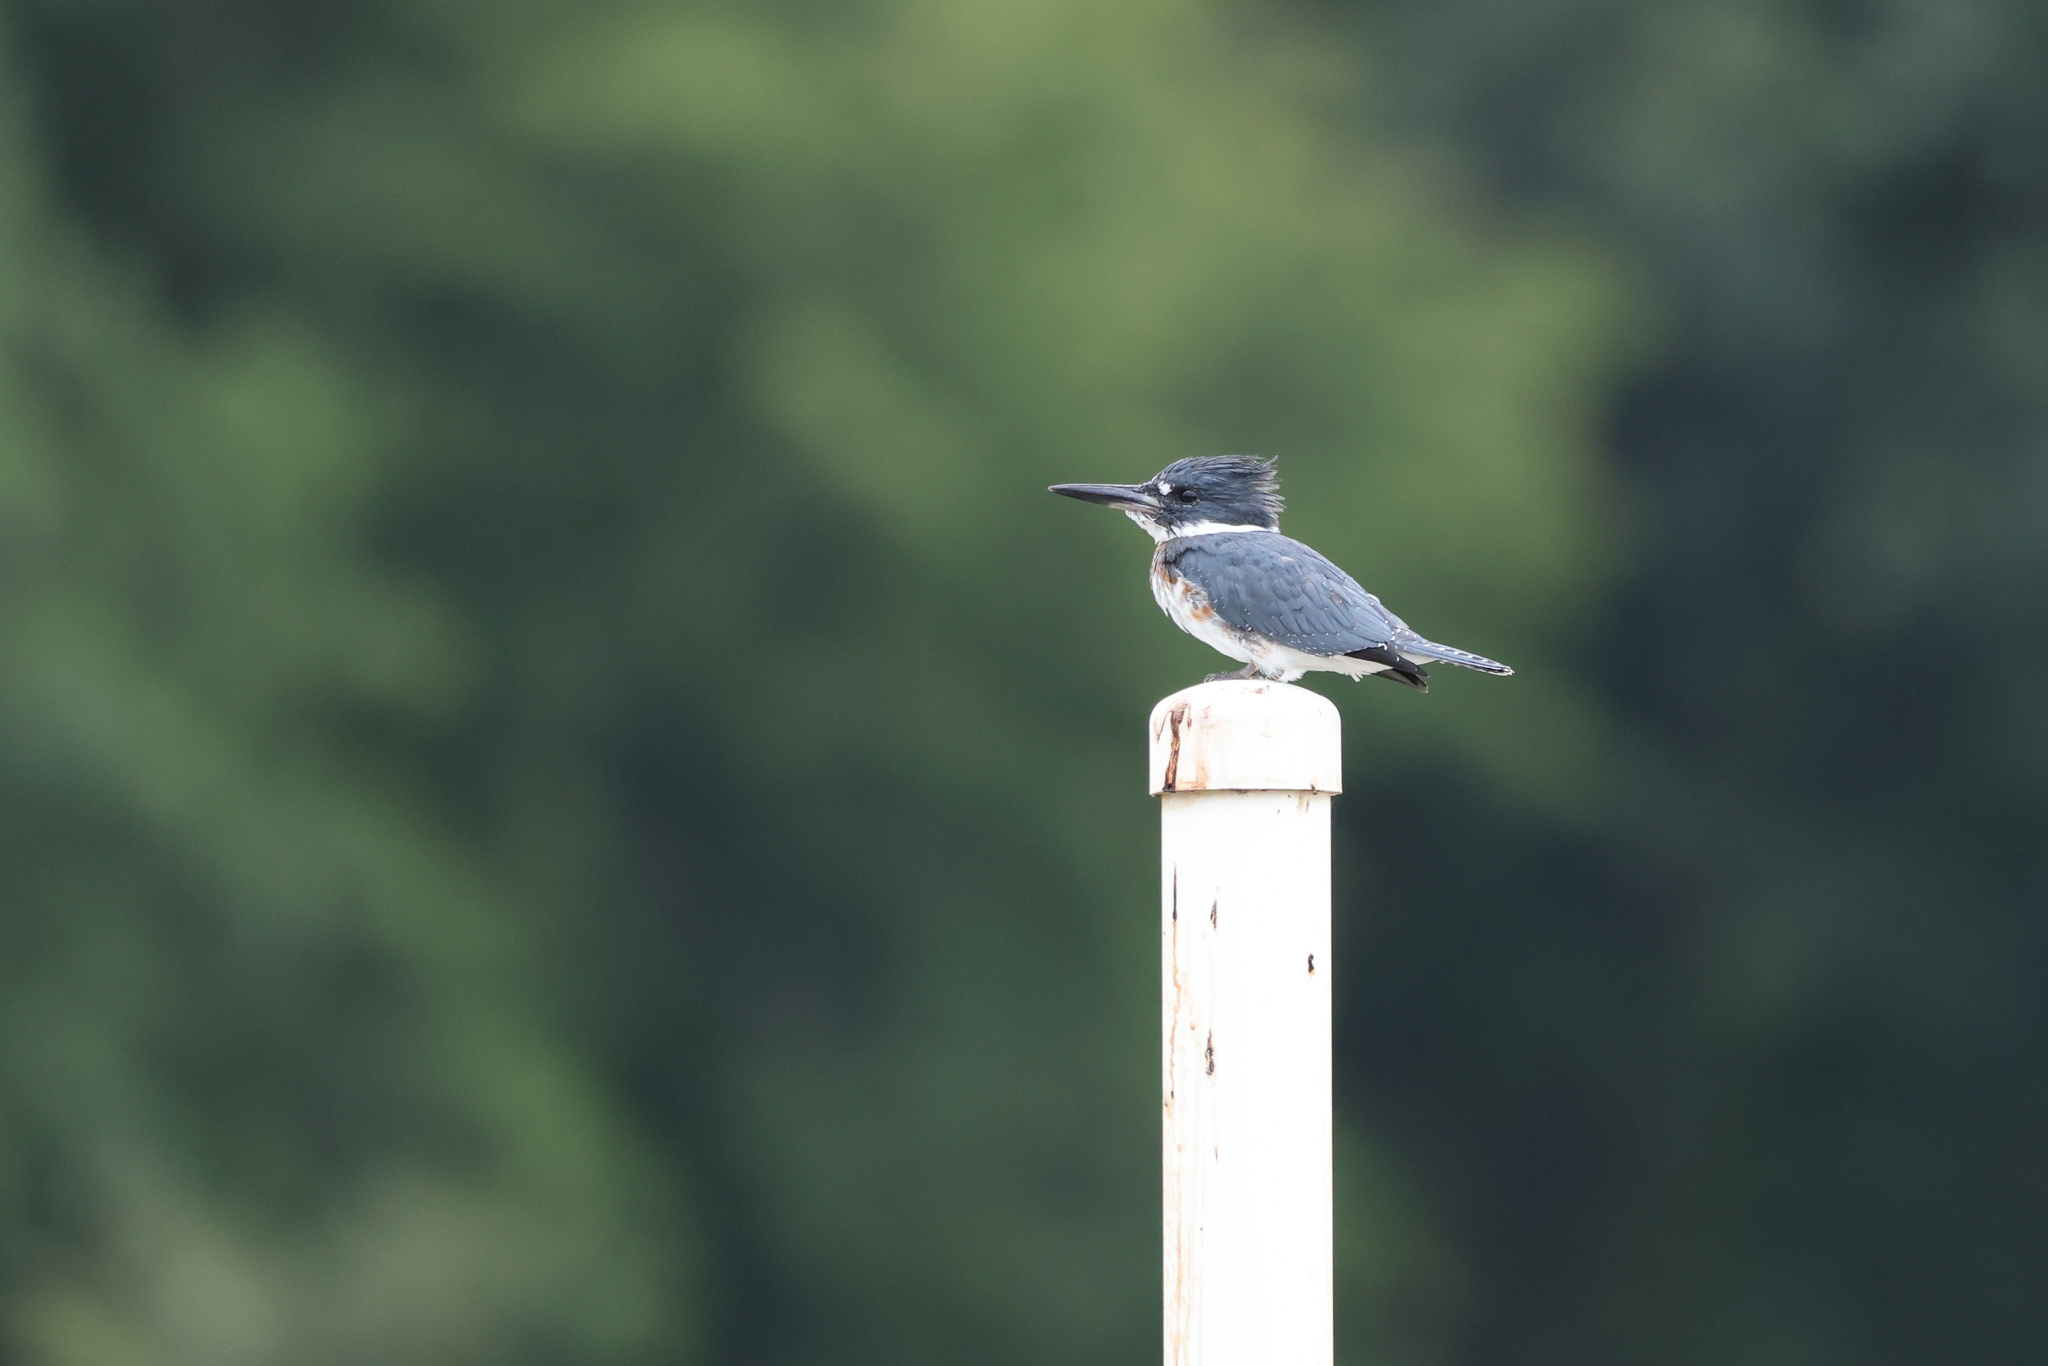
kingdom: Animalia
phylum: Chordata
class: Aves
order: Coraciiformes
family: Alcedinidae
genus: Megaceryle
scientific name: Megaceryle alcyon
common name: Belted kingfisher
